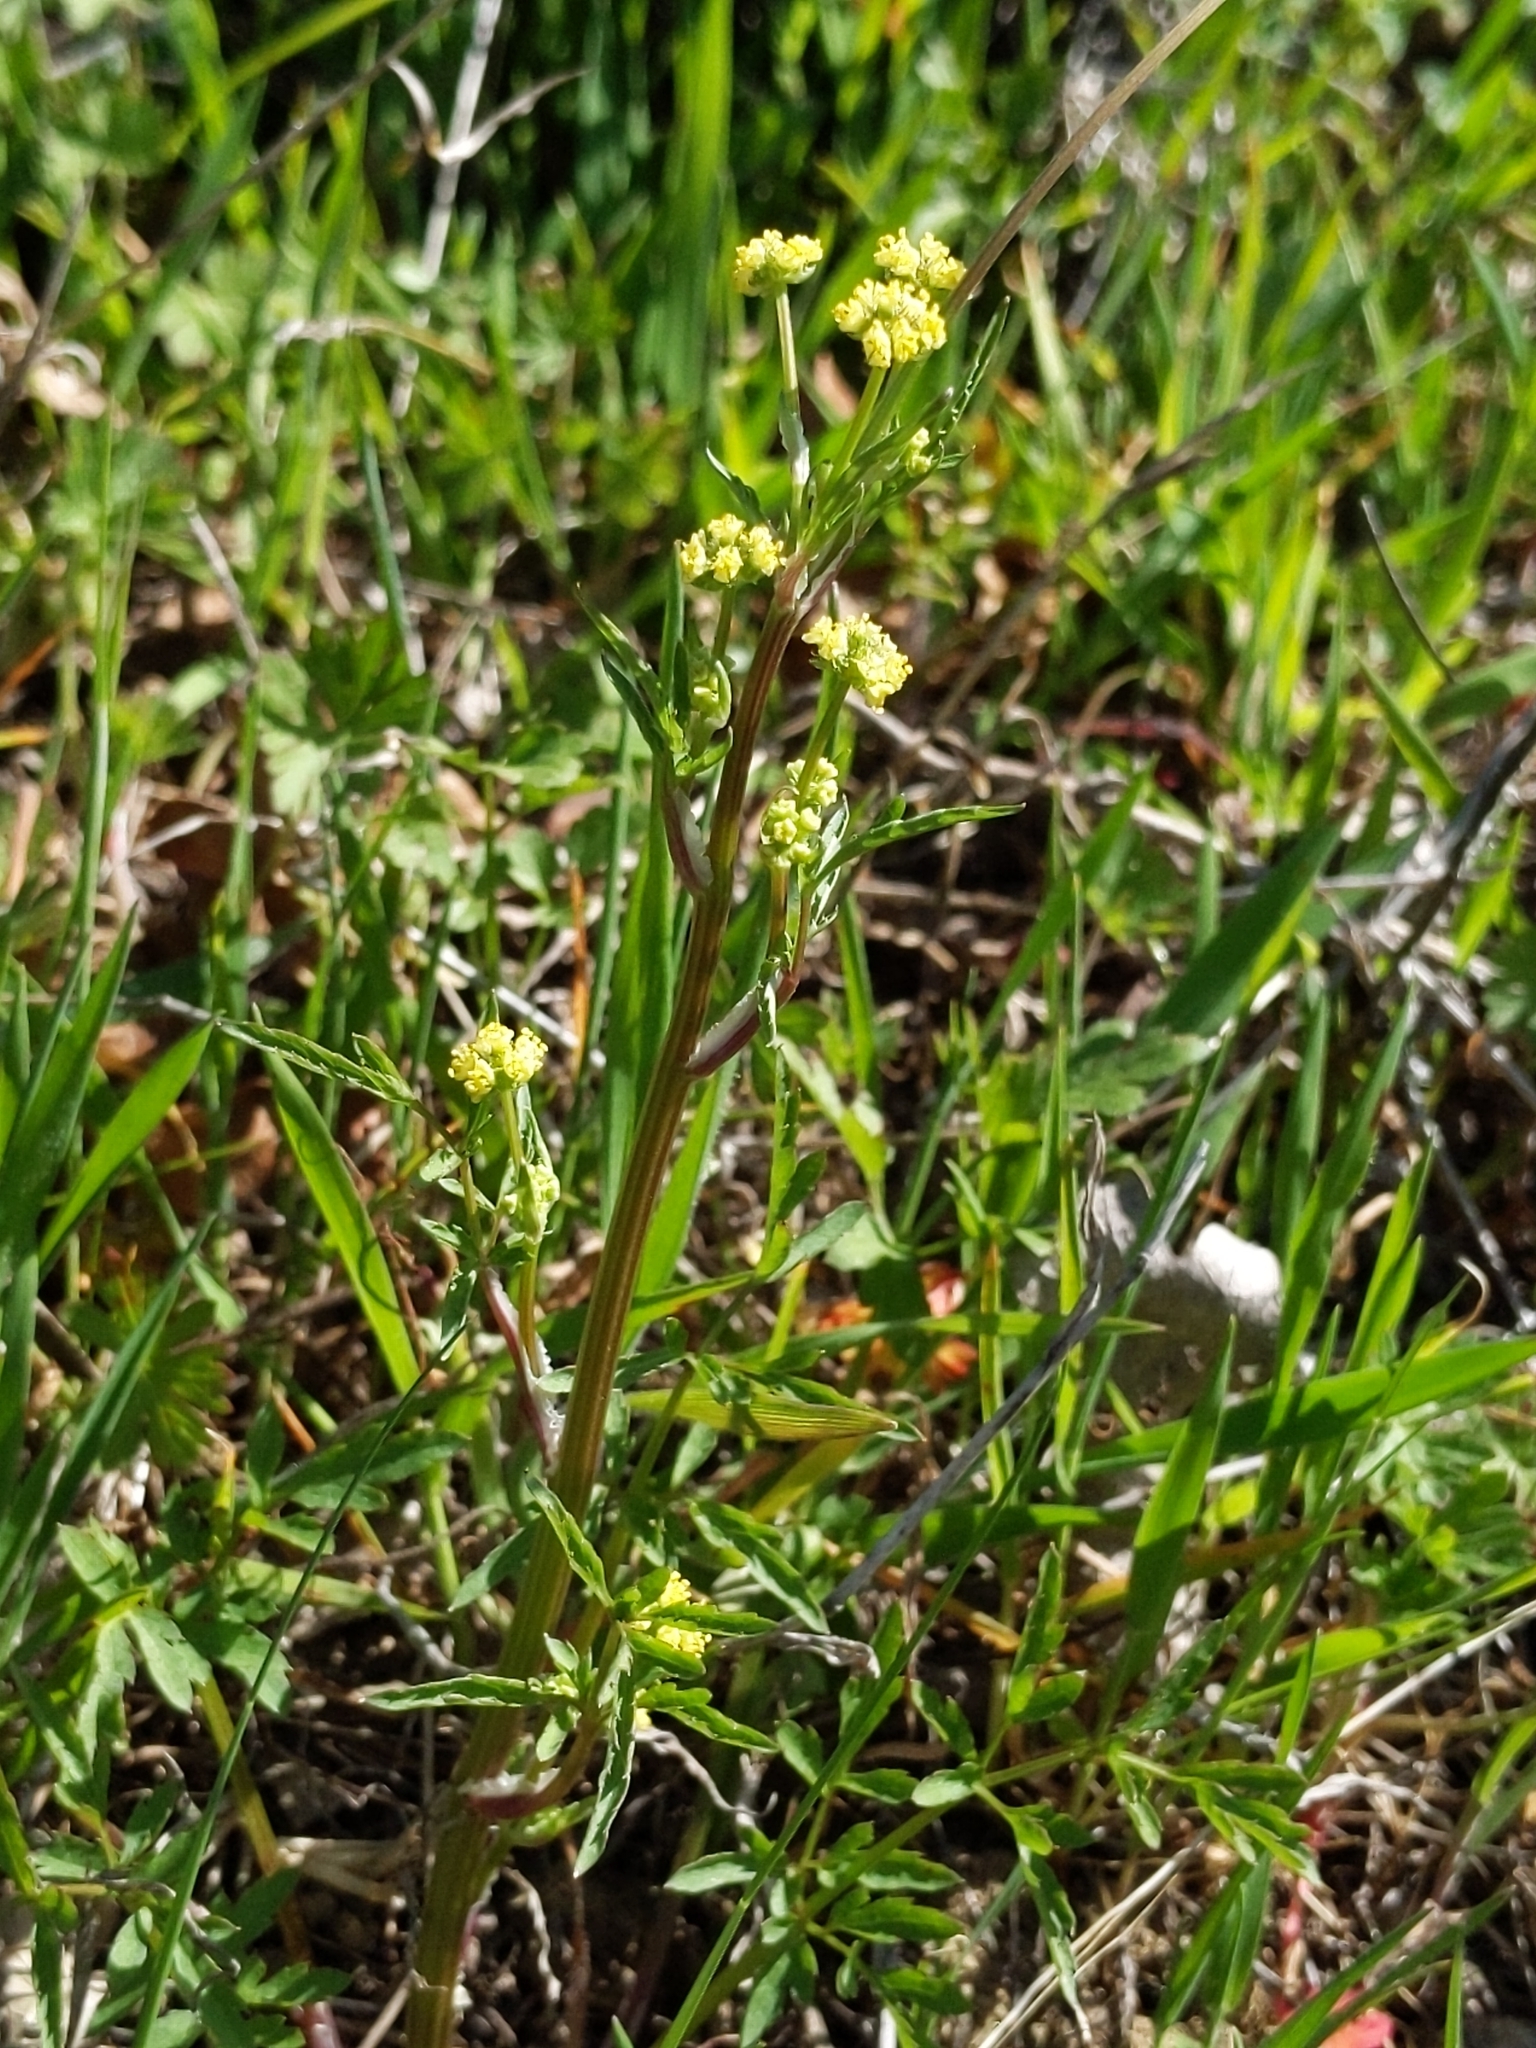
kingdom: Plantae
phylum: Tracheophyta
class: Magnoliopsida
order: Apiales
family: Apiaceae
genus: Sanicula
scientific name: Sanicula bipinnata
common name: Poison sanicle
